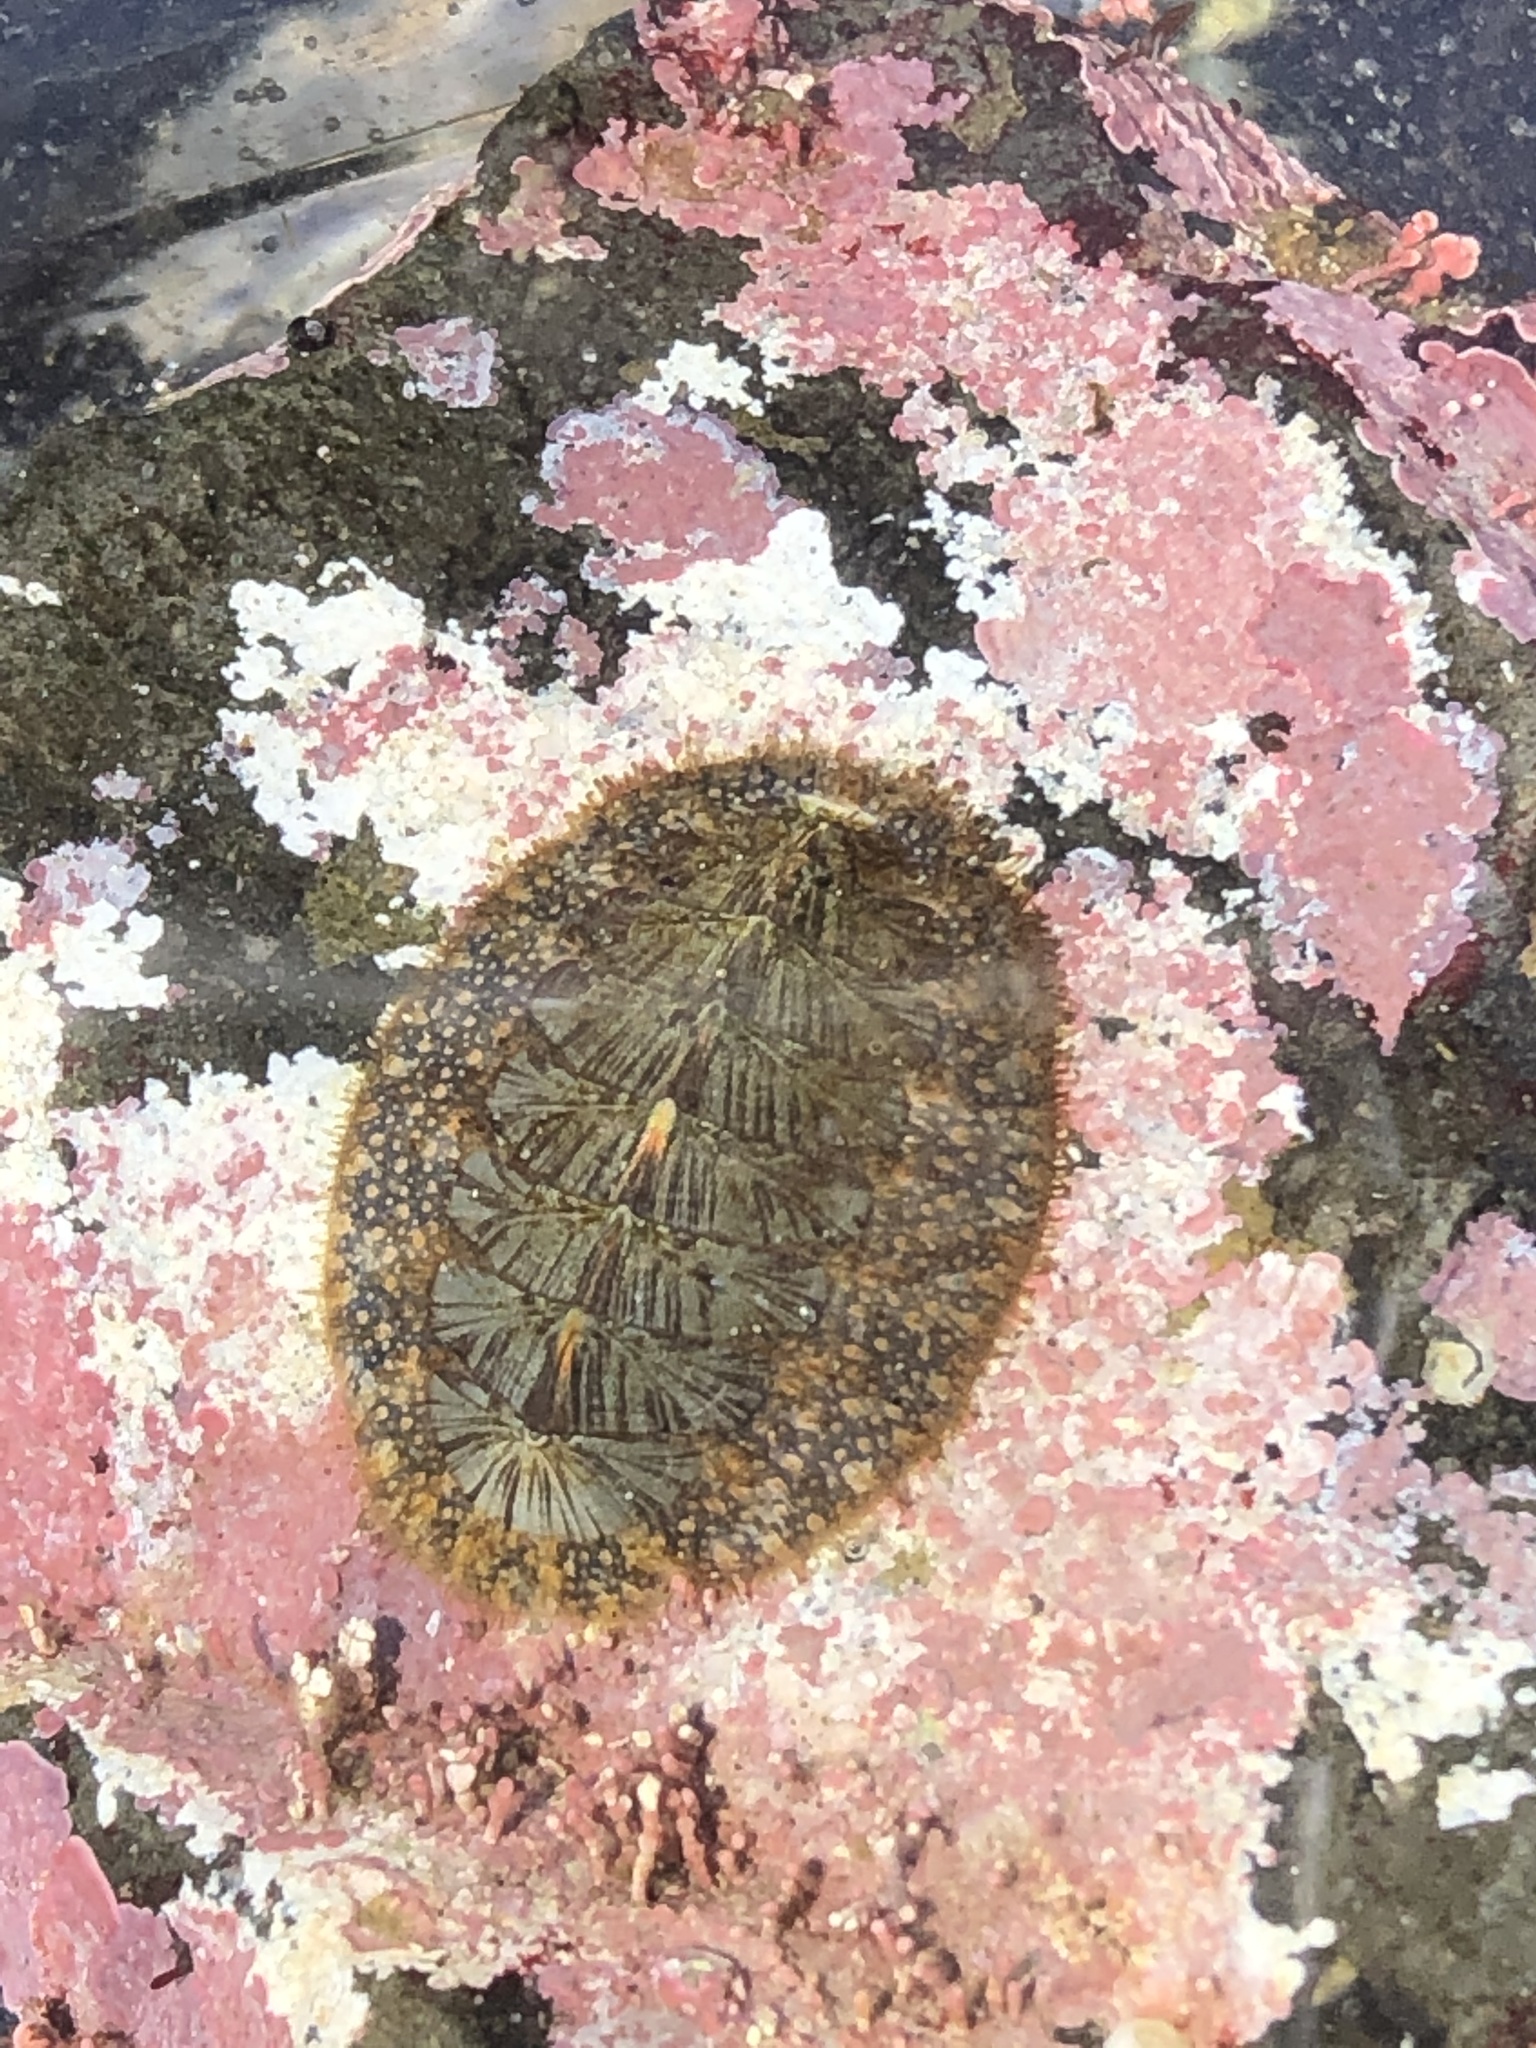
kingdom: Animalia
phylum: Mollusca
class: Polyplacophora
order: Chitonida
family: Mopaliidae
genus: Mopalia
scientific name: Mopalia lignosa
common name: Woody chiton
